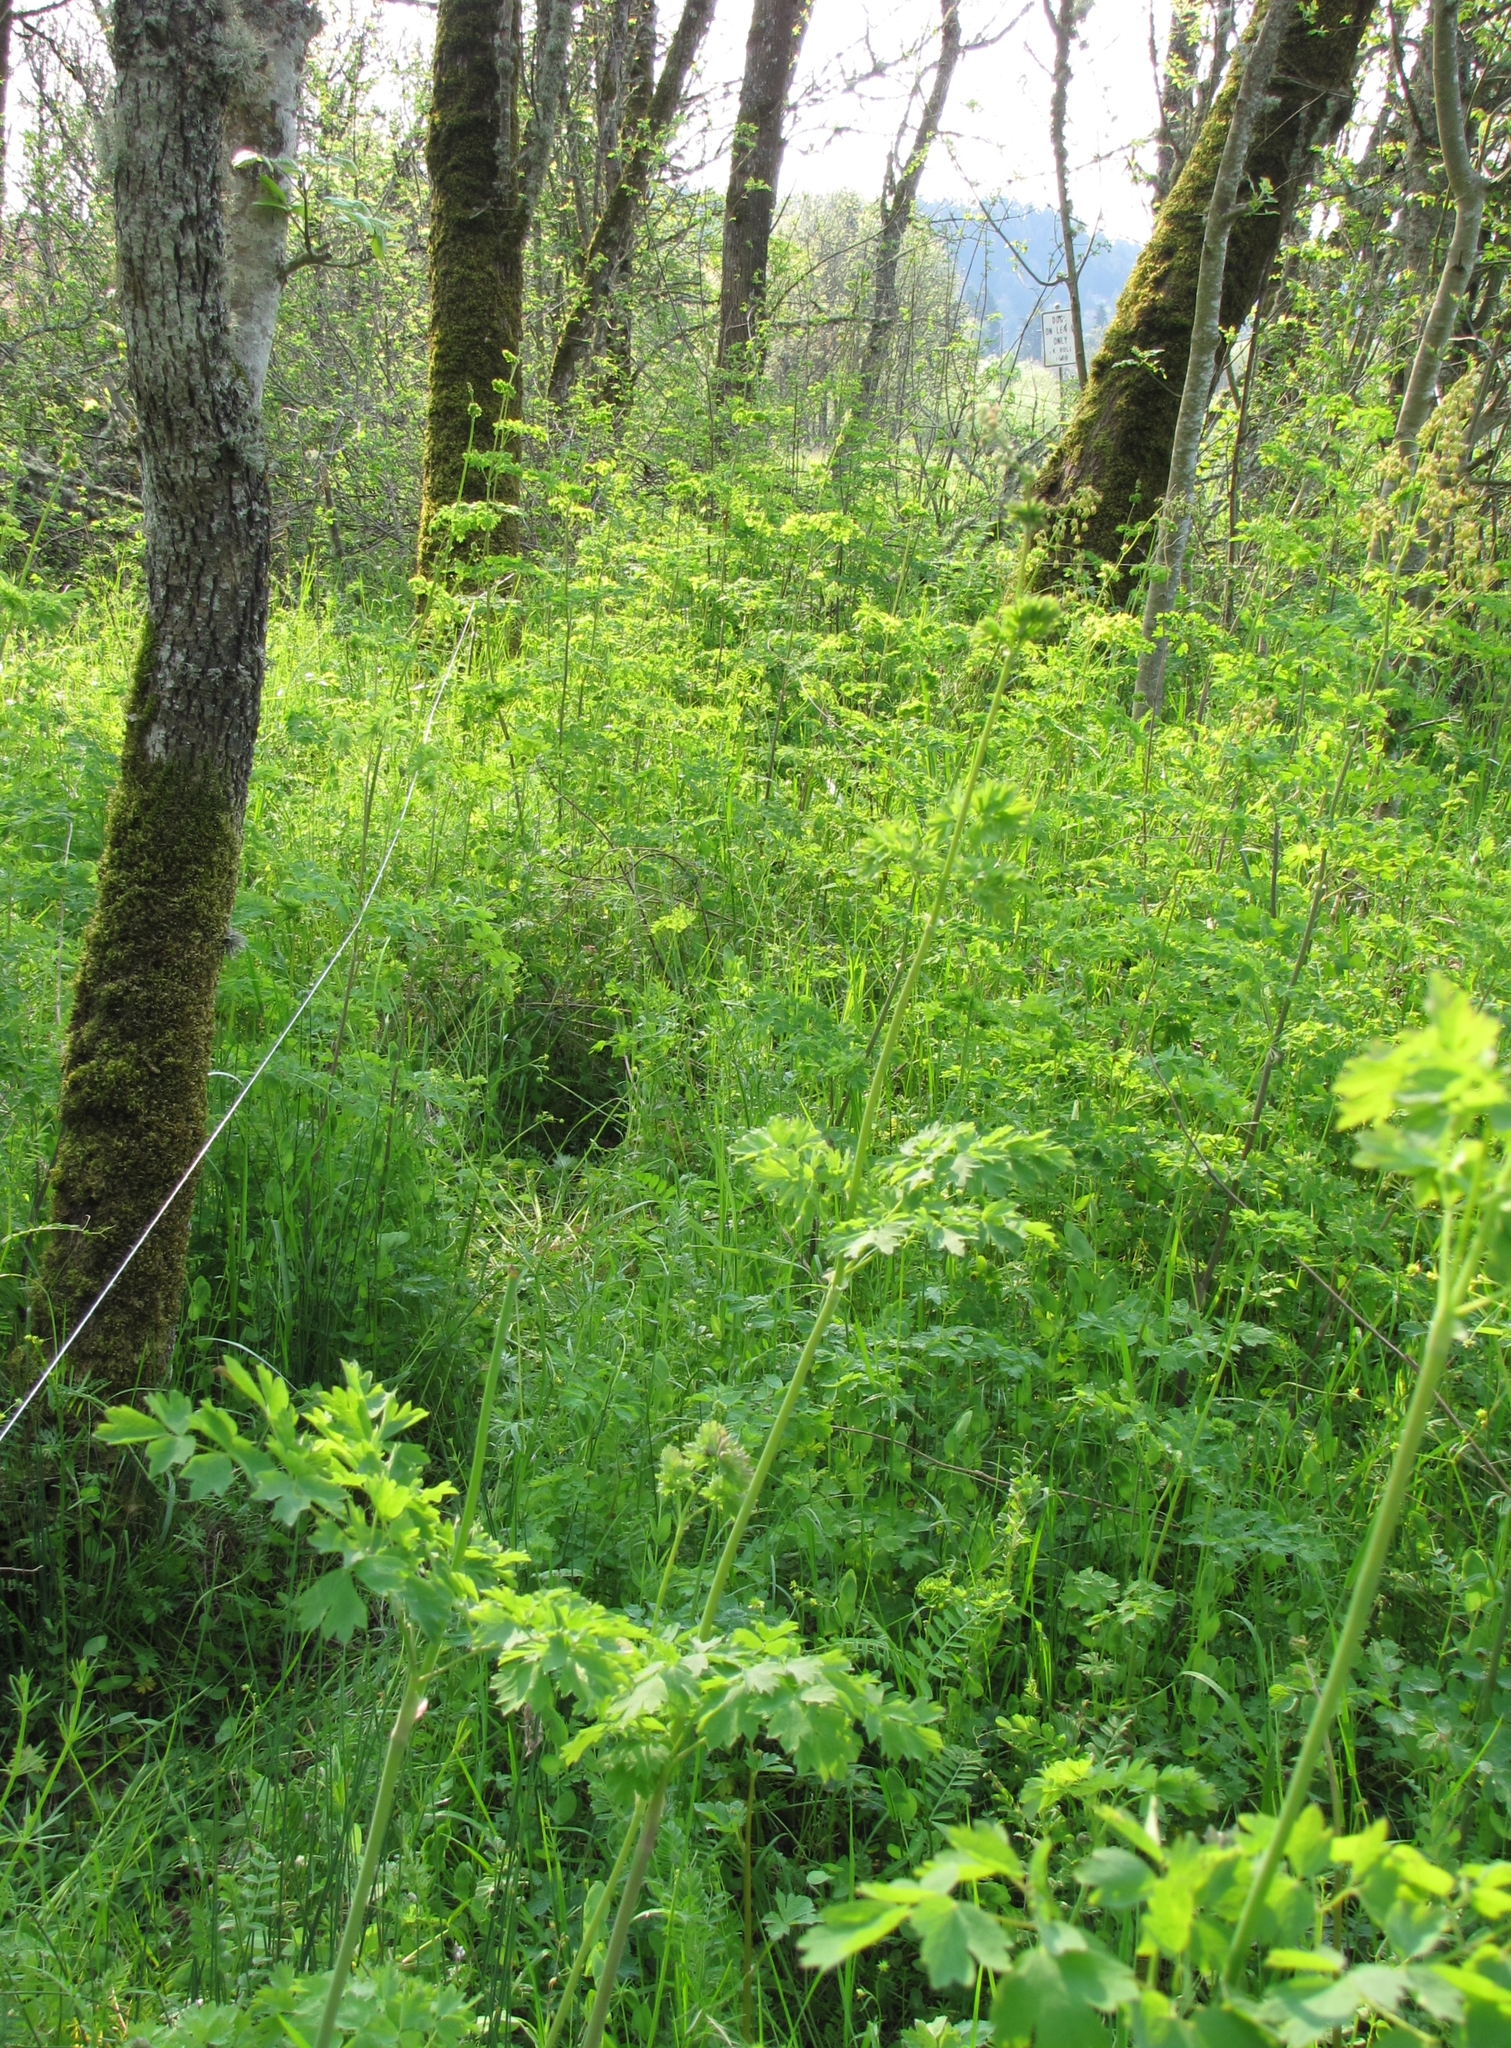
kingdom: Plantae
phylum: Tracheophyta
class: Magnoliopsida
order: Ranunculales
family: Ranunculaceae
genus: Thalictrum
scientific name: Thalictrum fendleri
